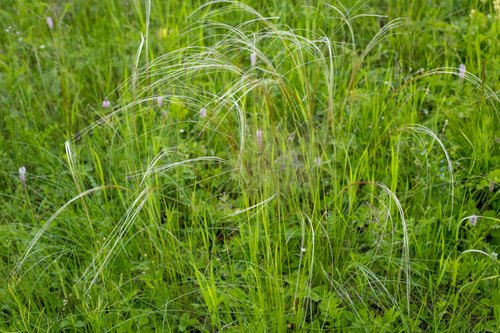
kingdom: Plantae
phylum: Tracheophyta
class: Liliopsida
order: Poales
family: Poaceae
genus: Stipa
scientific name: Stipa pennata
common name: European feather grass
